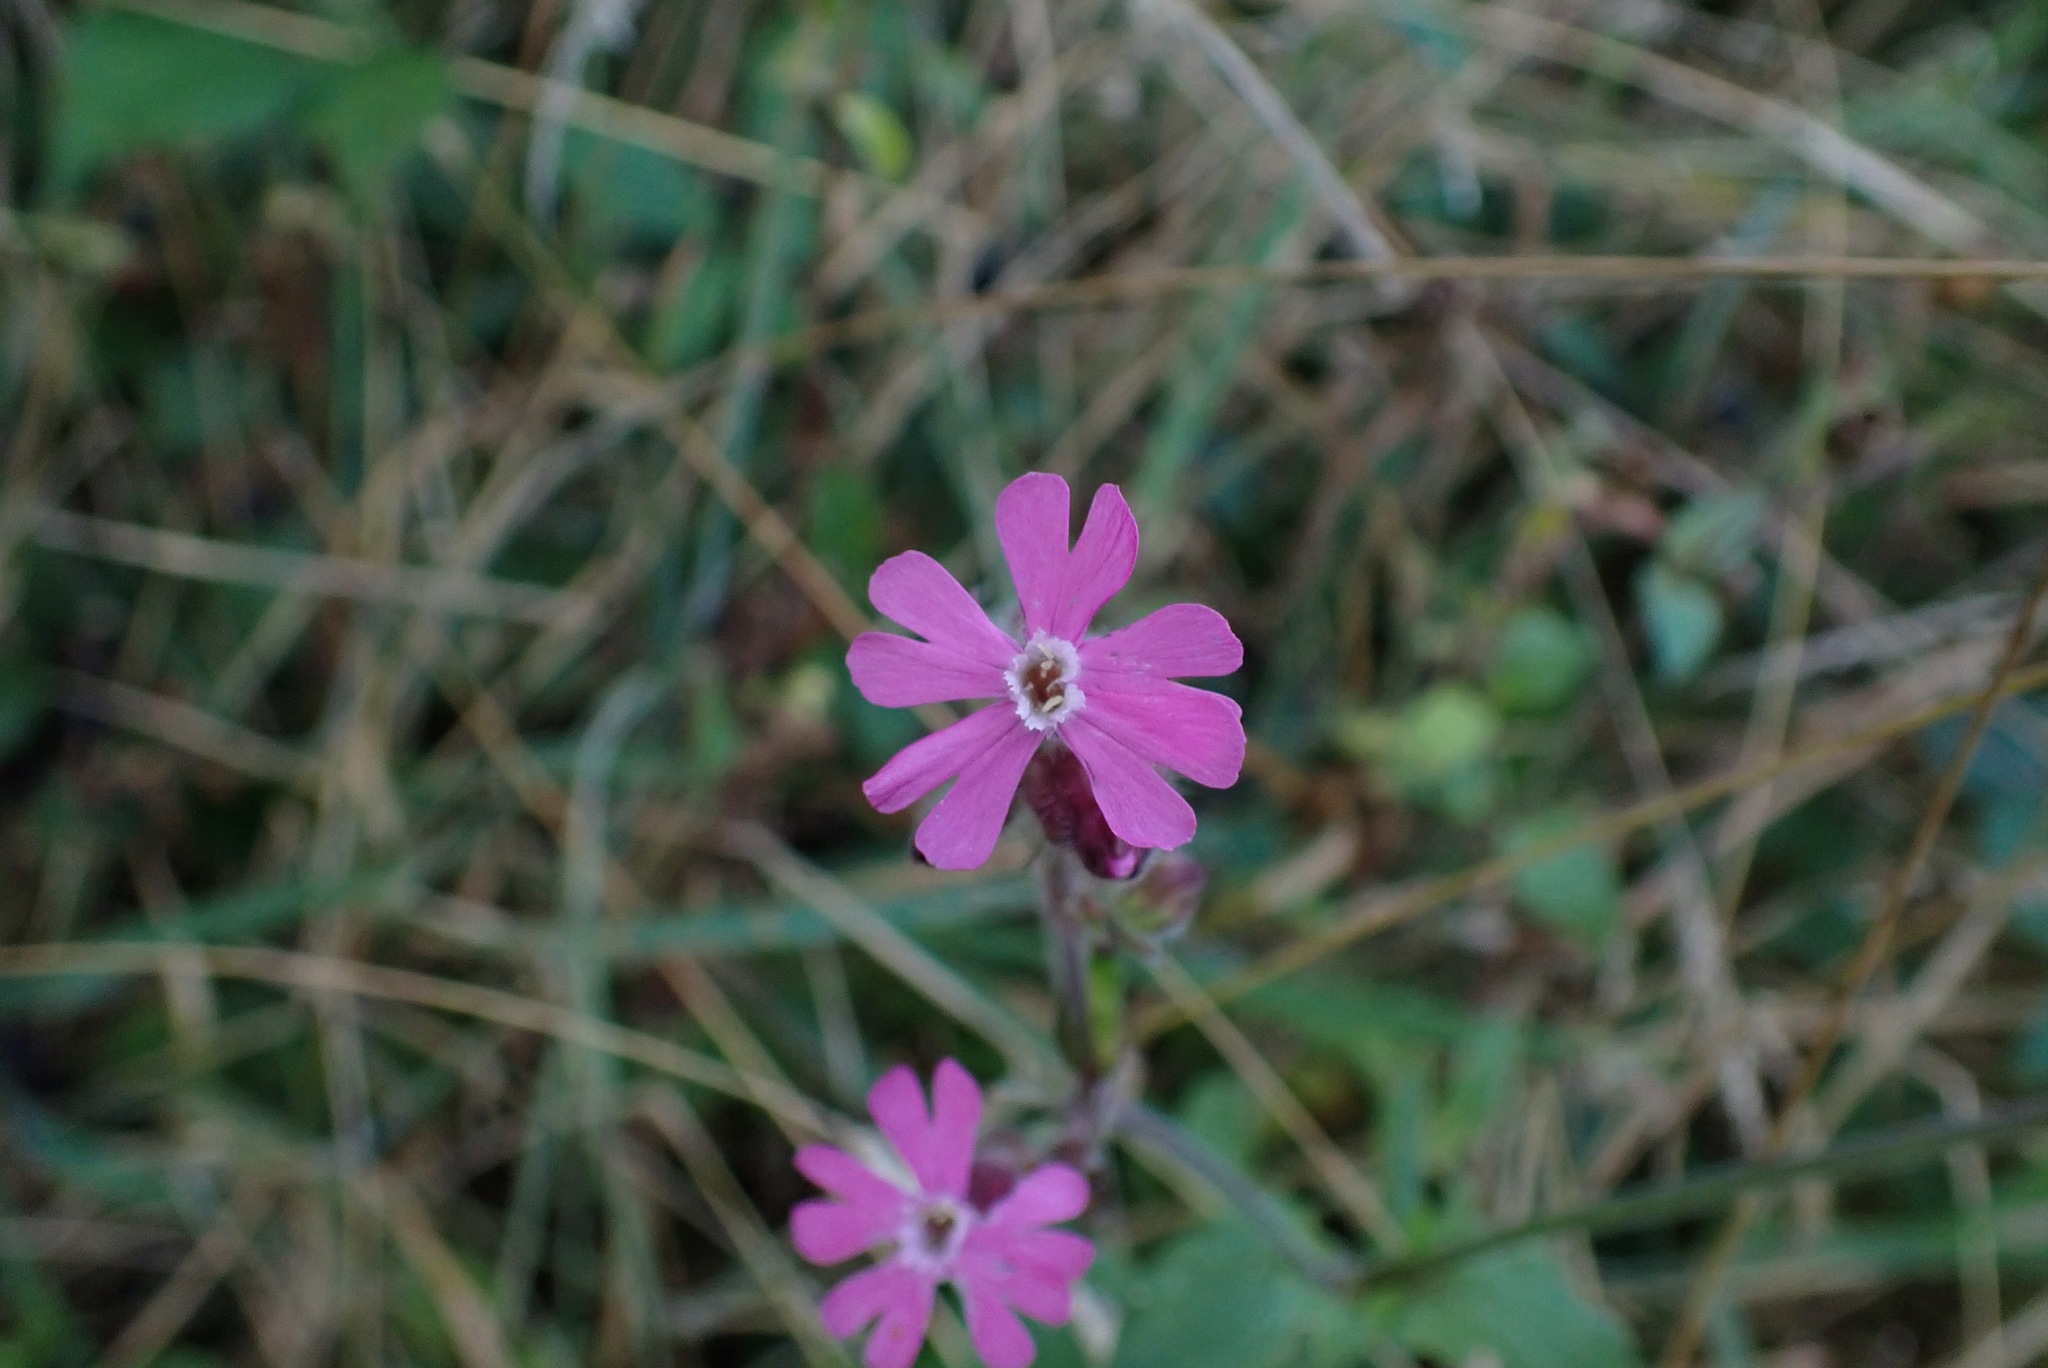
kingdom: Plantae
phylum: Tracheophyta
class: Magnoliopsida
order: Caryophyllales
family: Caryophyllaceae
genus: Silene
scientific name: Silene dioica
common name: Red campion
